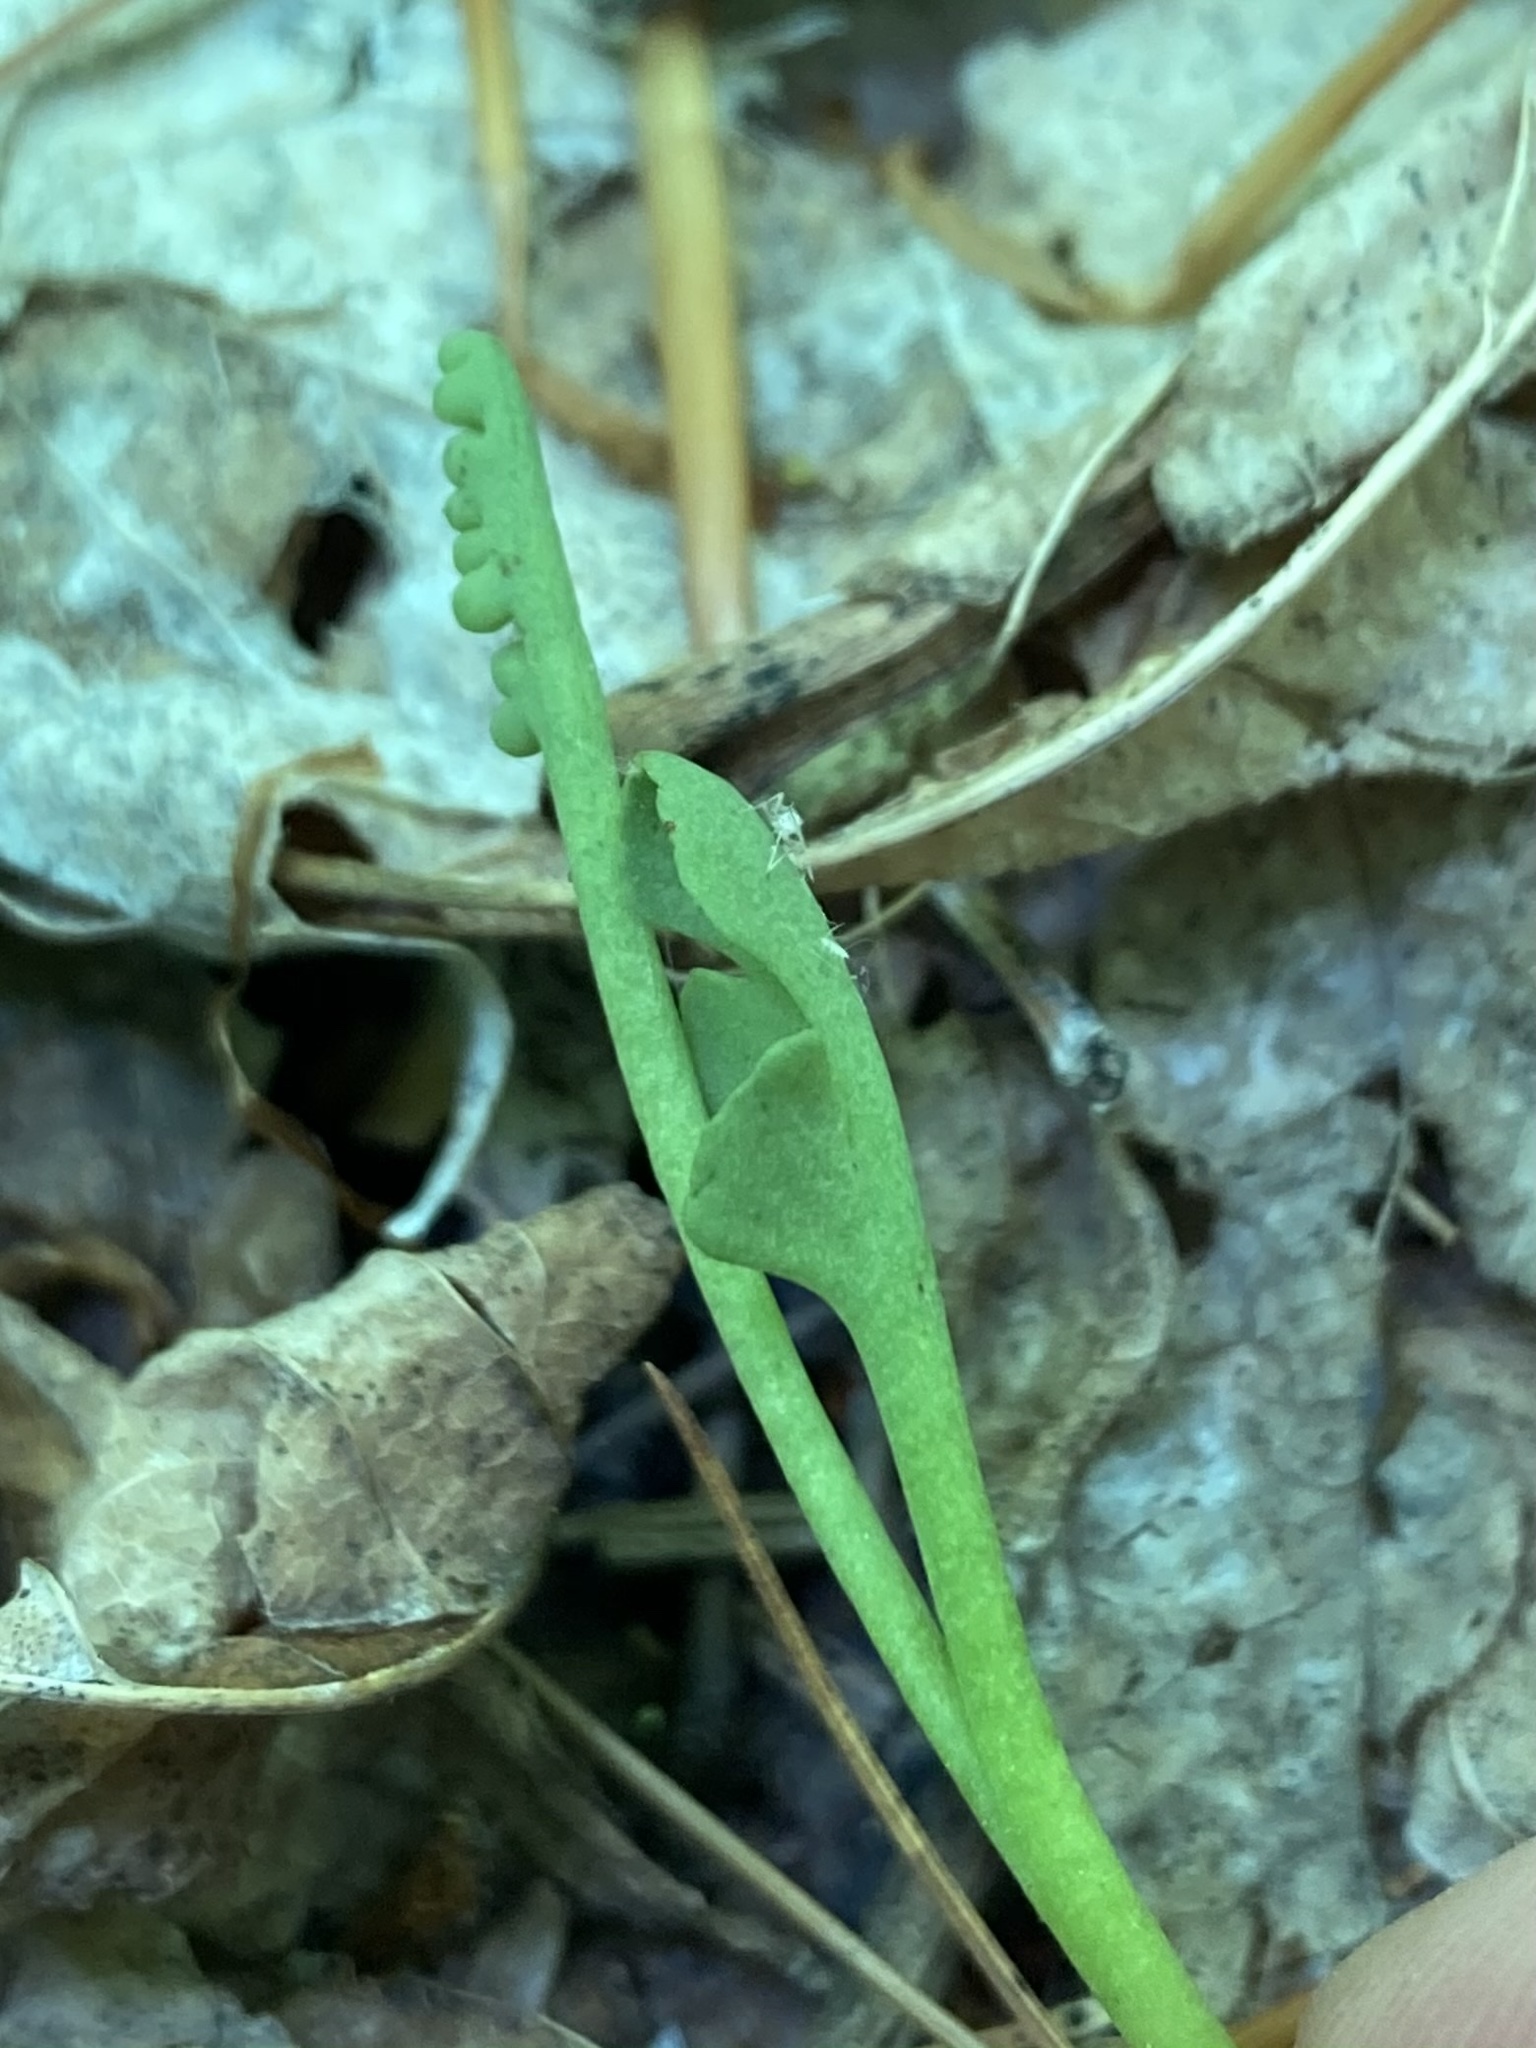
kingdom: Plantae
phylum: Tracheophyta
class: Polypodiopsida
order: Ophioglossales
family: Ophioglossaceae
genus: Botrychium
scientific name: Botrychium simplex
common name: Least moonwort
